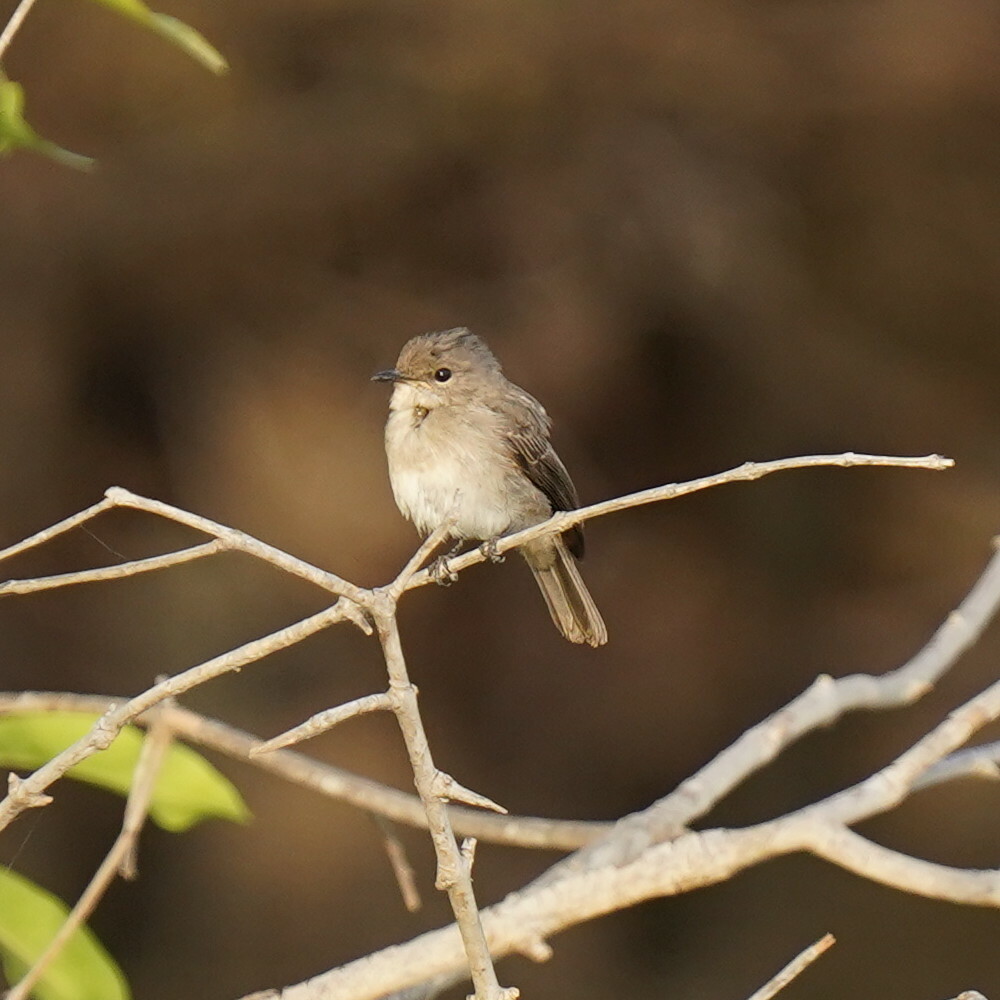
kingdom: Animalia
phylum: Chordata
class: Aves
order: Passeriformes
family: Muscicapidae
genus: Muscicapa
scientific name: Muscicapa aquatica
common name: Swamp flycatcher
